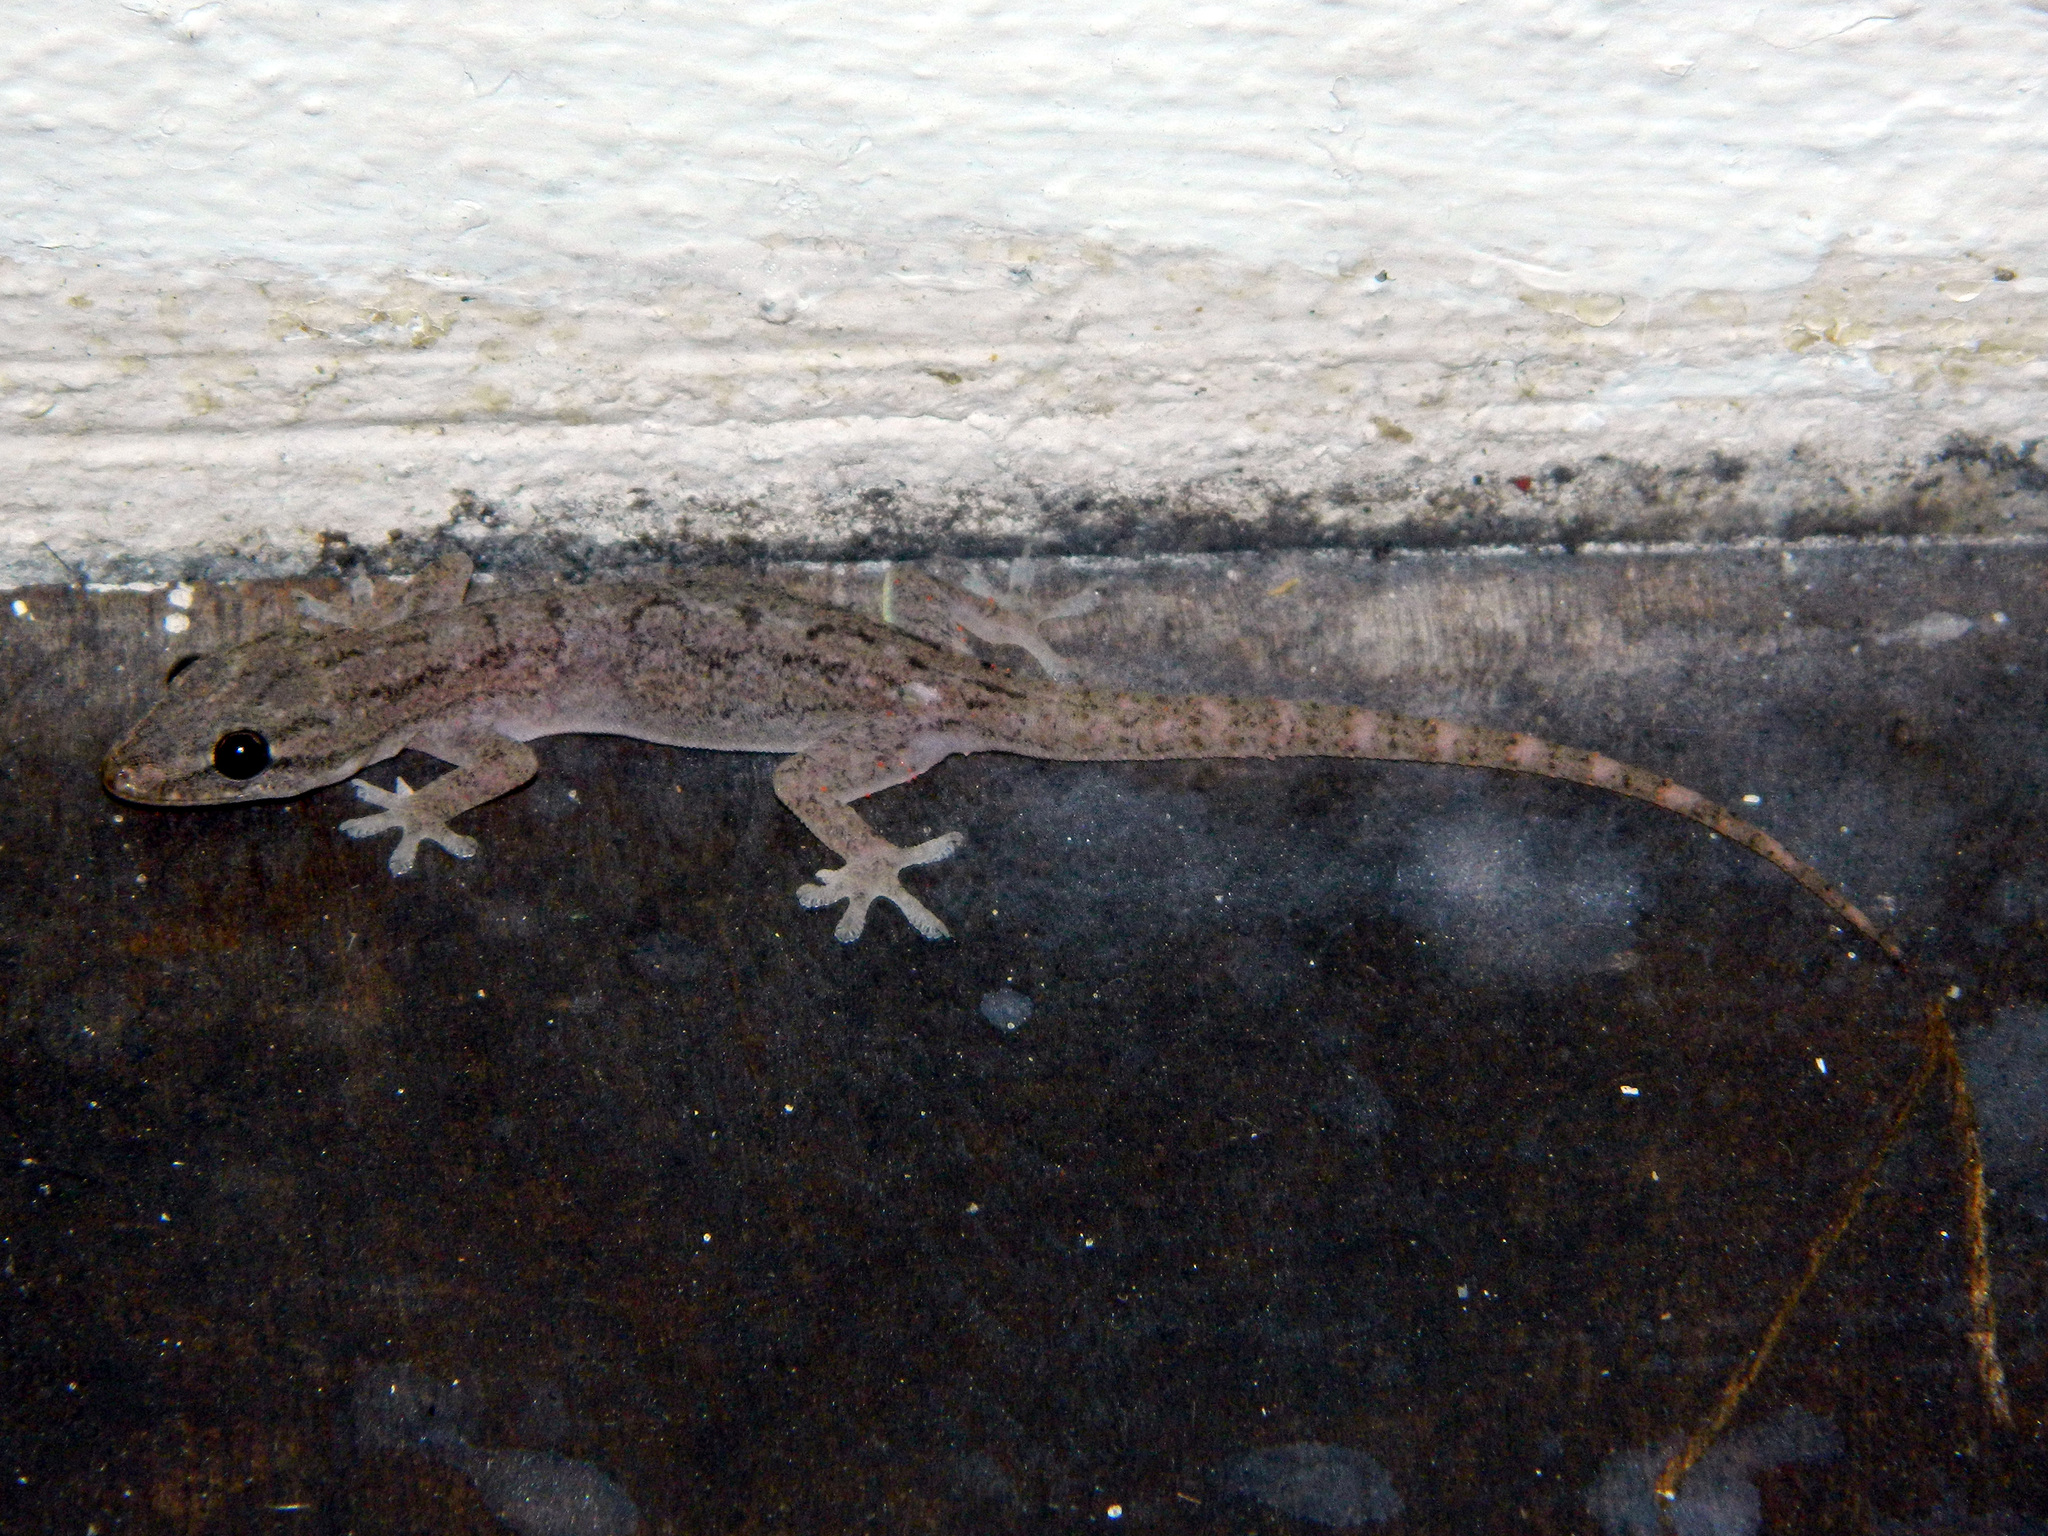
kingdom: Animalia
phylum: Chordata
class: Squamata
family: Gekkonidae
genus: Hemidactylus
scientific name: Hemidactylus frenatus
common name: Common house gecko
